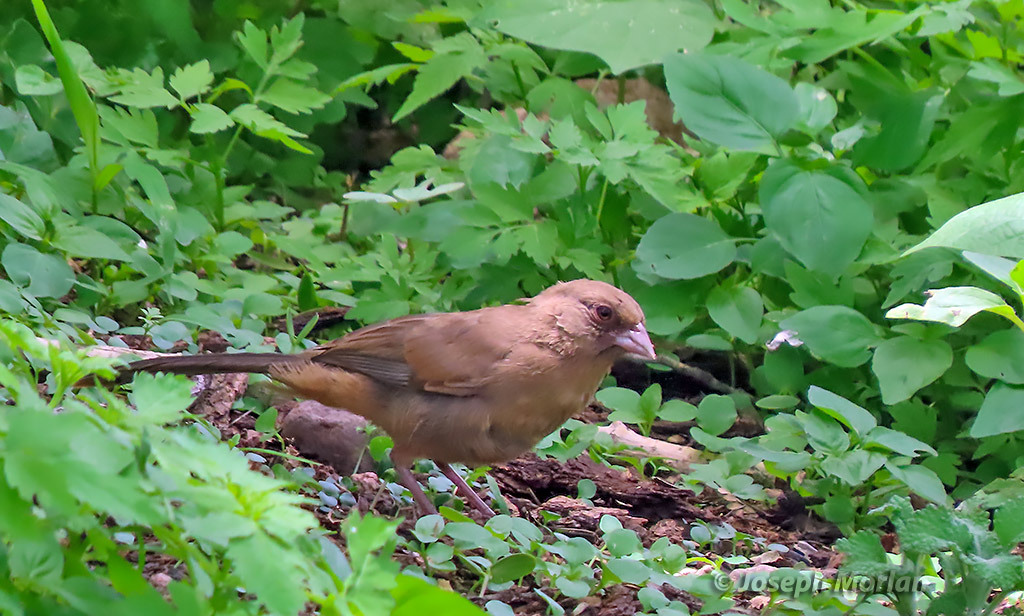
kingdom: Animalia
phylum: Chordata
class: Aves
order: Passeriformes
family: Passerellidae
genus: Melozone
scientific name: Melozone aberti
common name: Abert's towhee
